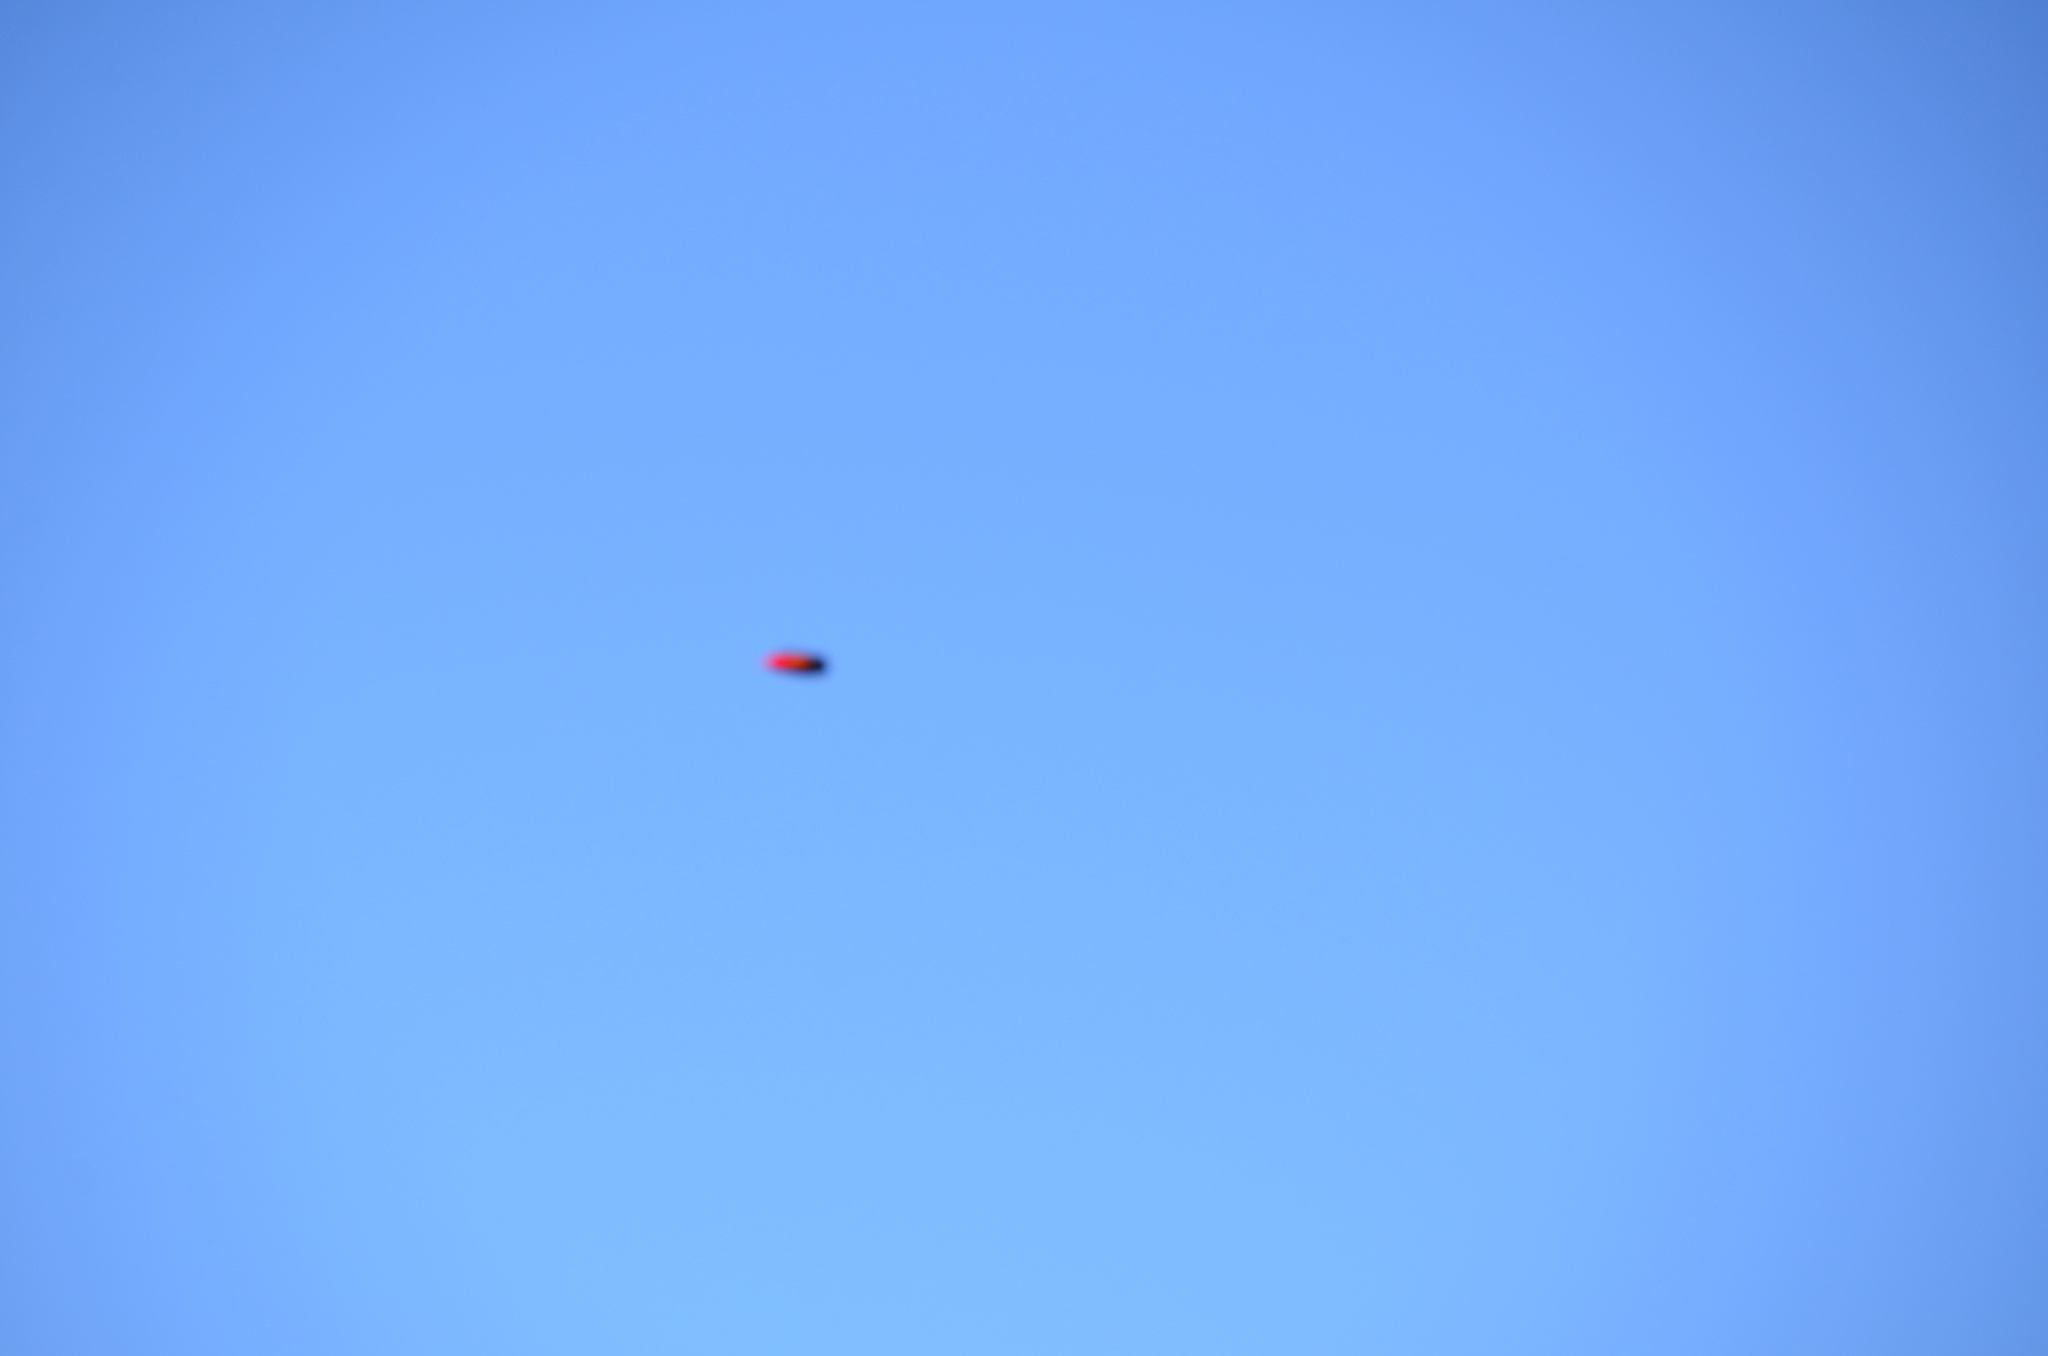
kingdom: Animalia
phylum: Chordata
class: Aves
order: Passeriformes
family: Fringillidae
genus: Vestiaria
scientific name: Vestiaria coccinea
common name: Iiwi
